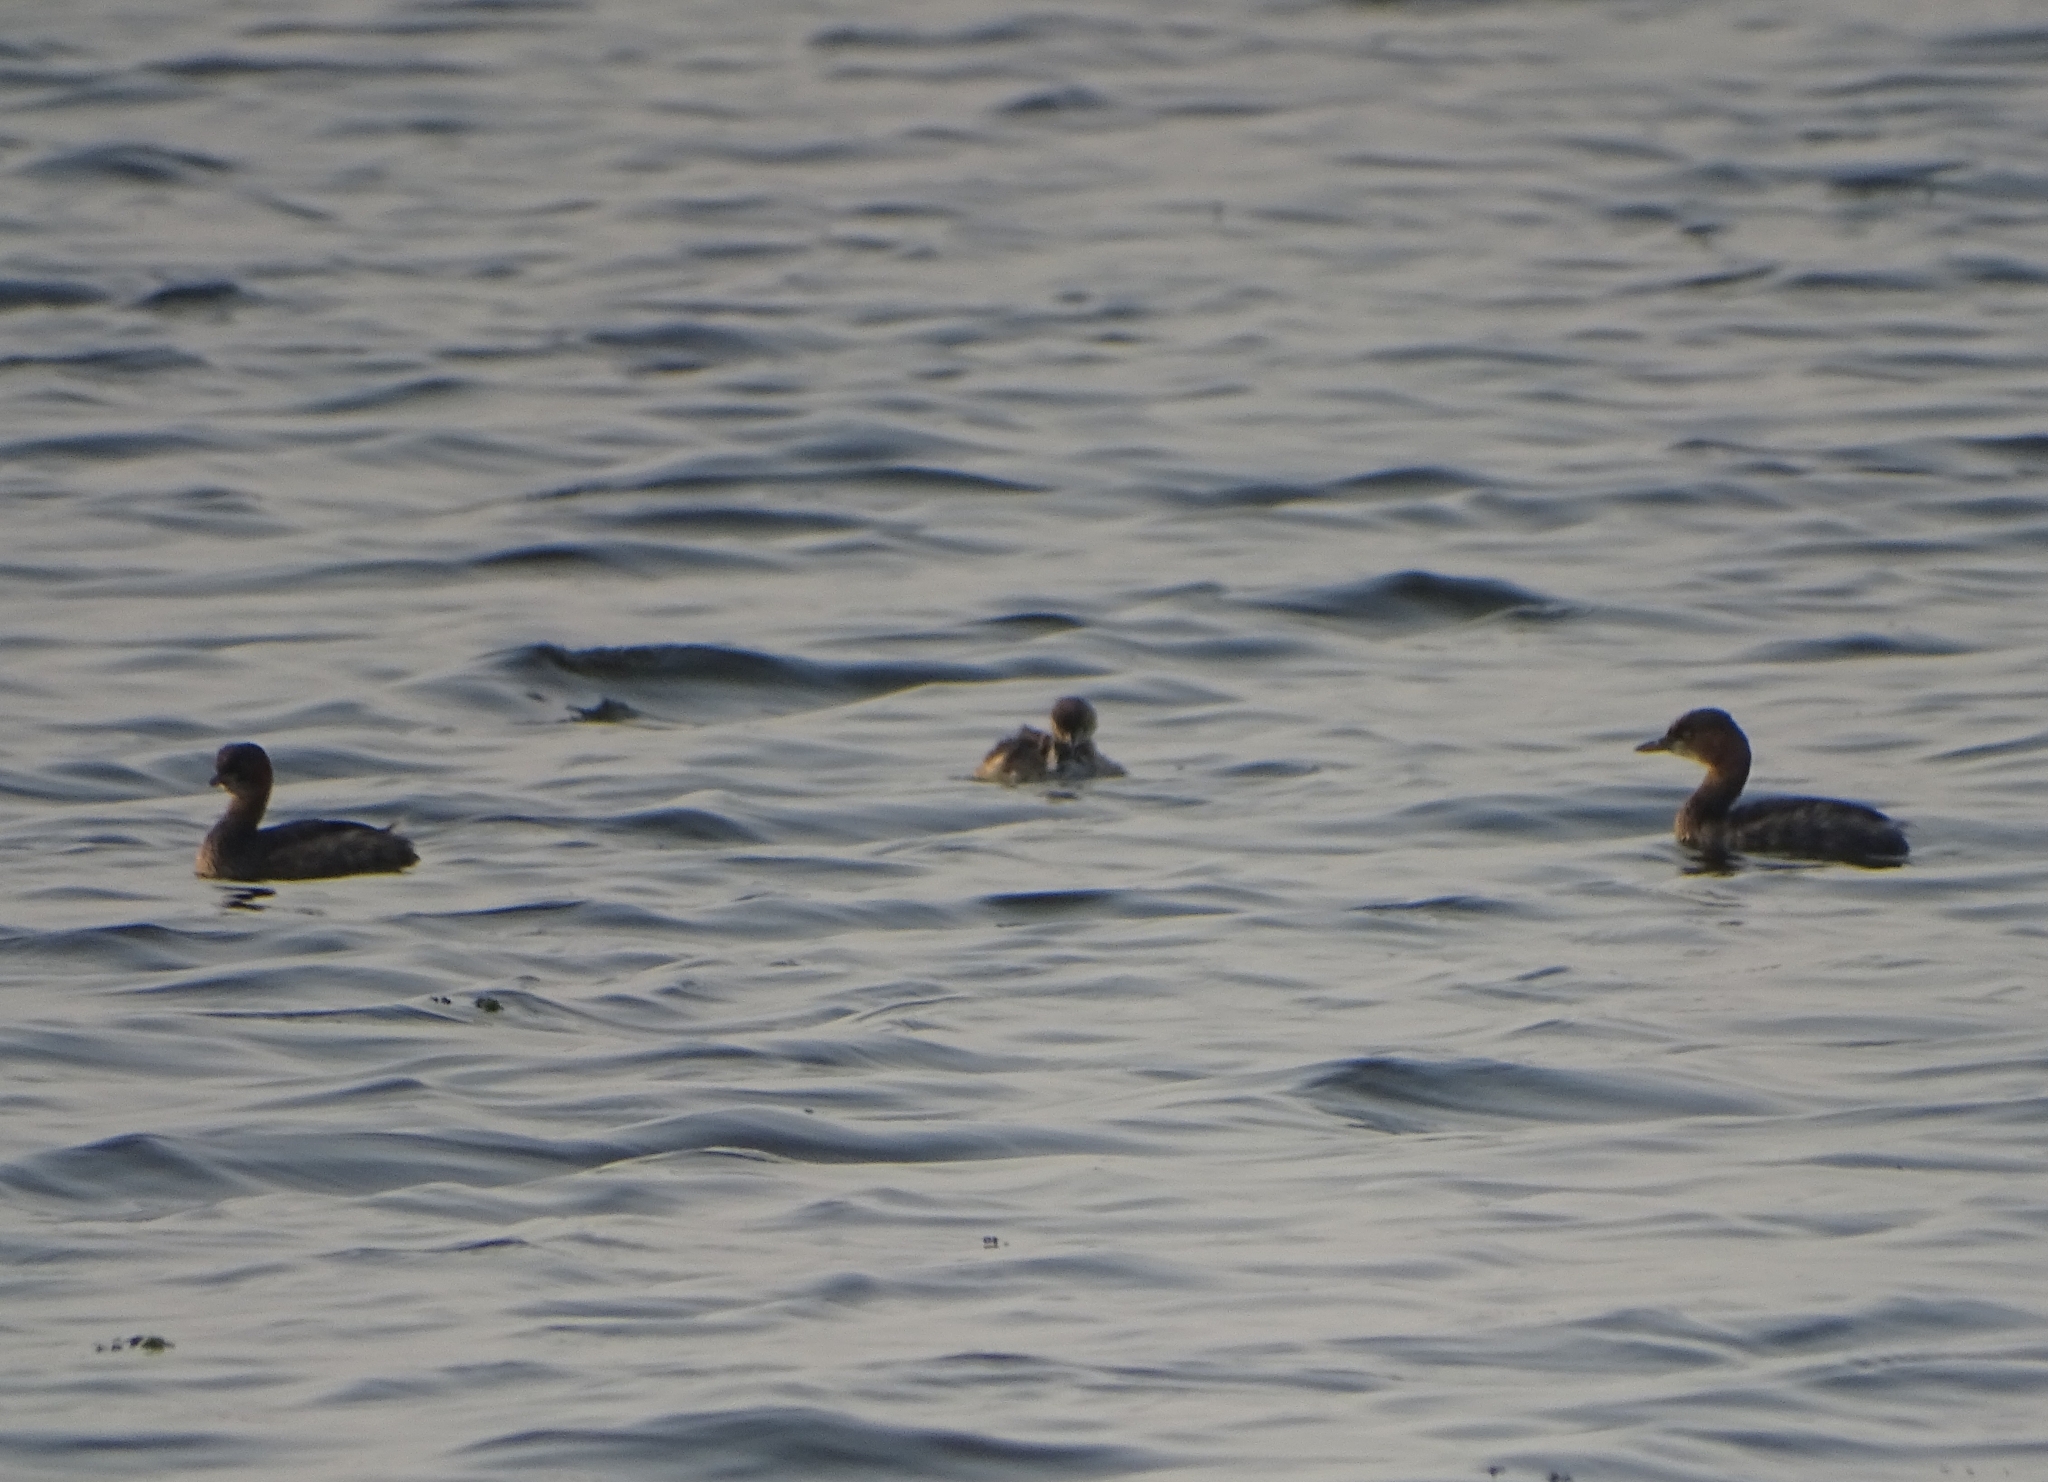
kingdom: Animalia
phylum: Chordata
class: Aves
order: Podicipediformes
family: Podicipedidae
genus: Tachybaptus
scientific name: Tachybaptus ruficollis
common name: Little grebe
